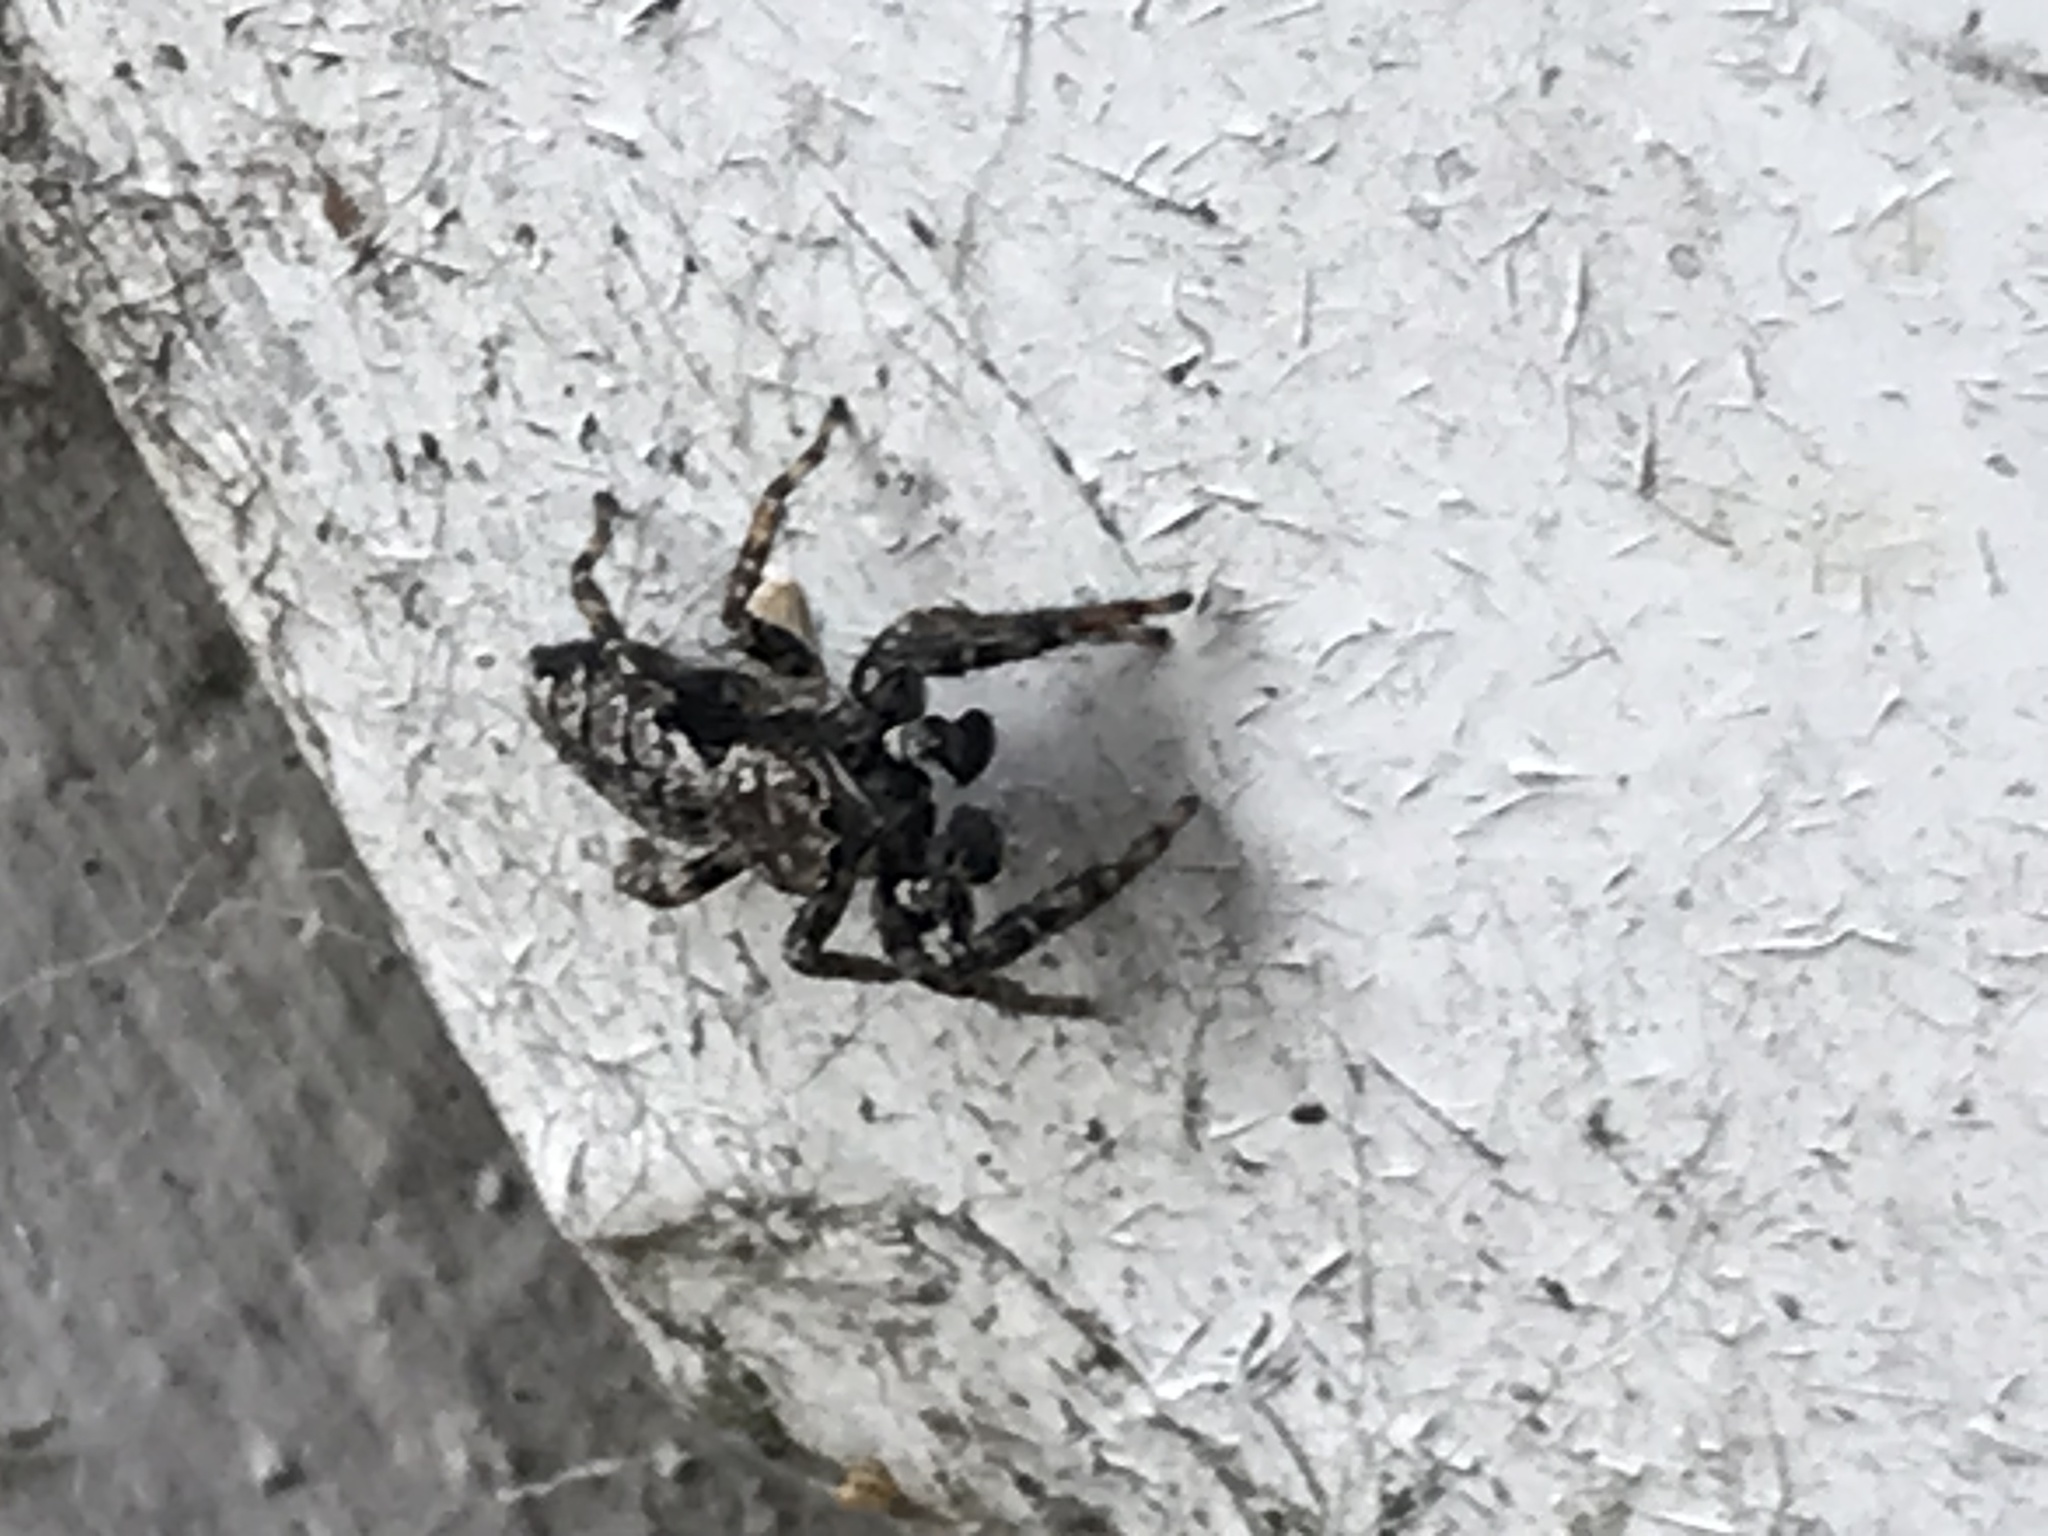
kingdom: Animalia
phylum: Arthropoda
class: Arachnida
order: Araneae
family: Salticidae
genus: Marpissa
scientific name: Marpissa muscosa
